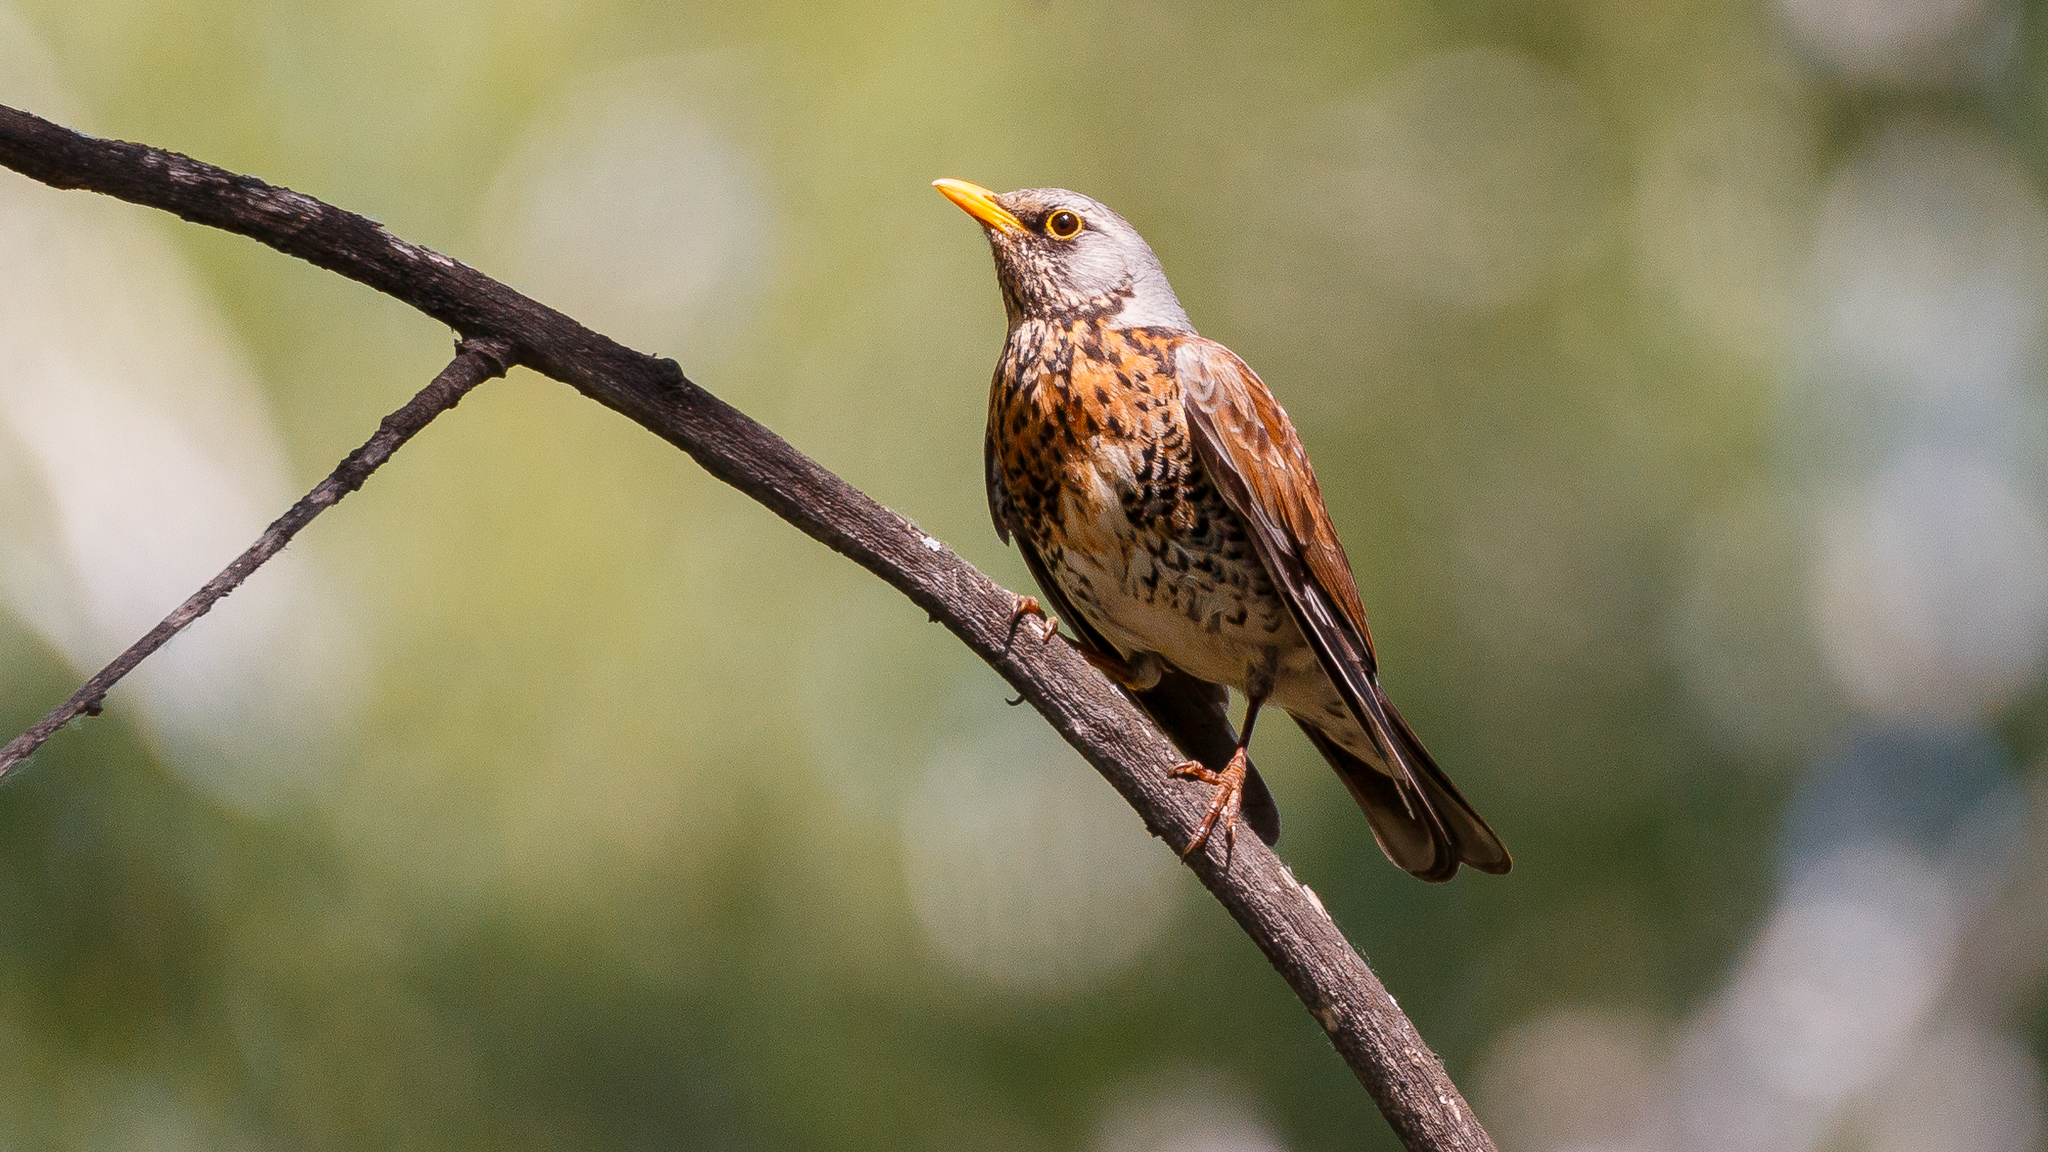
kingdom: Animalia
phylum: Chordata
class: Aves
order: Passeriformes
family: Turdidae
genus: Turdus
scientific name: Turdus pilaris
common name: Fieldfare
